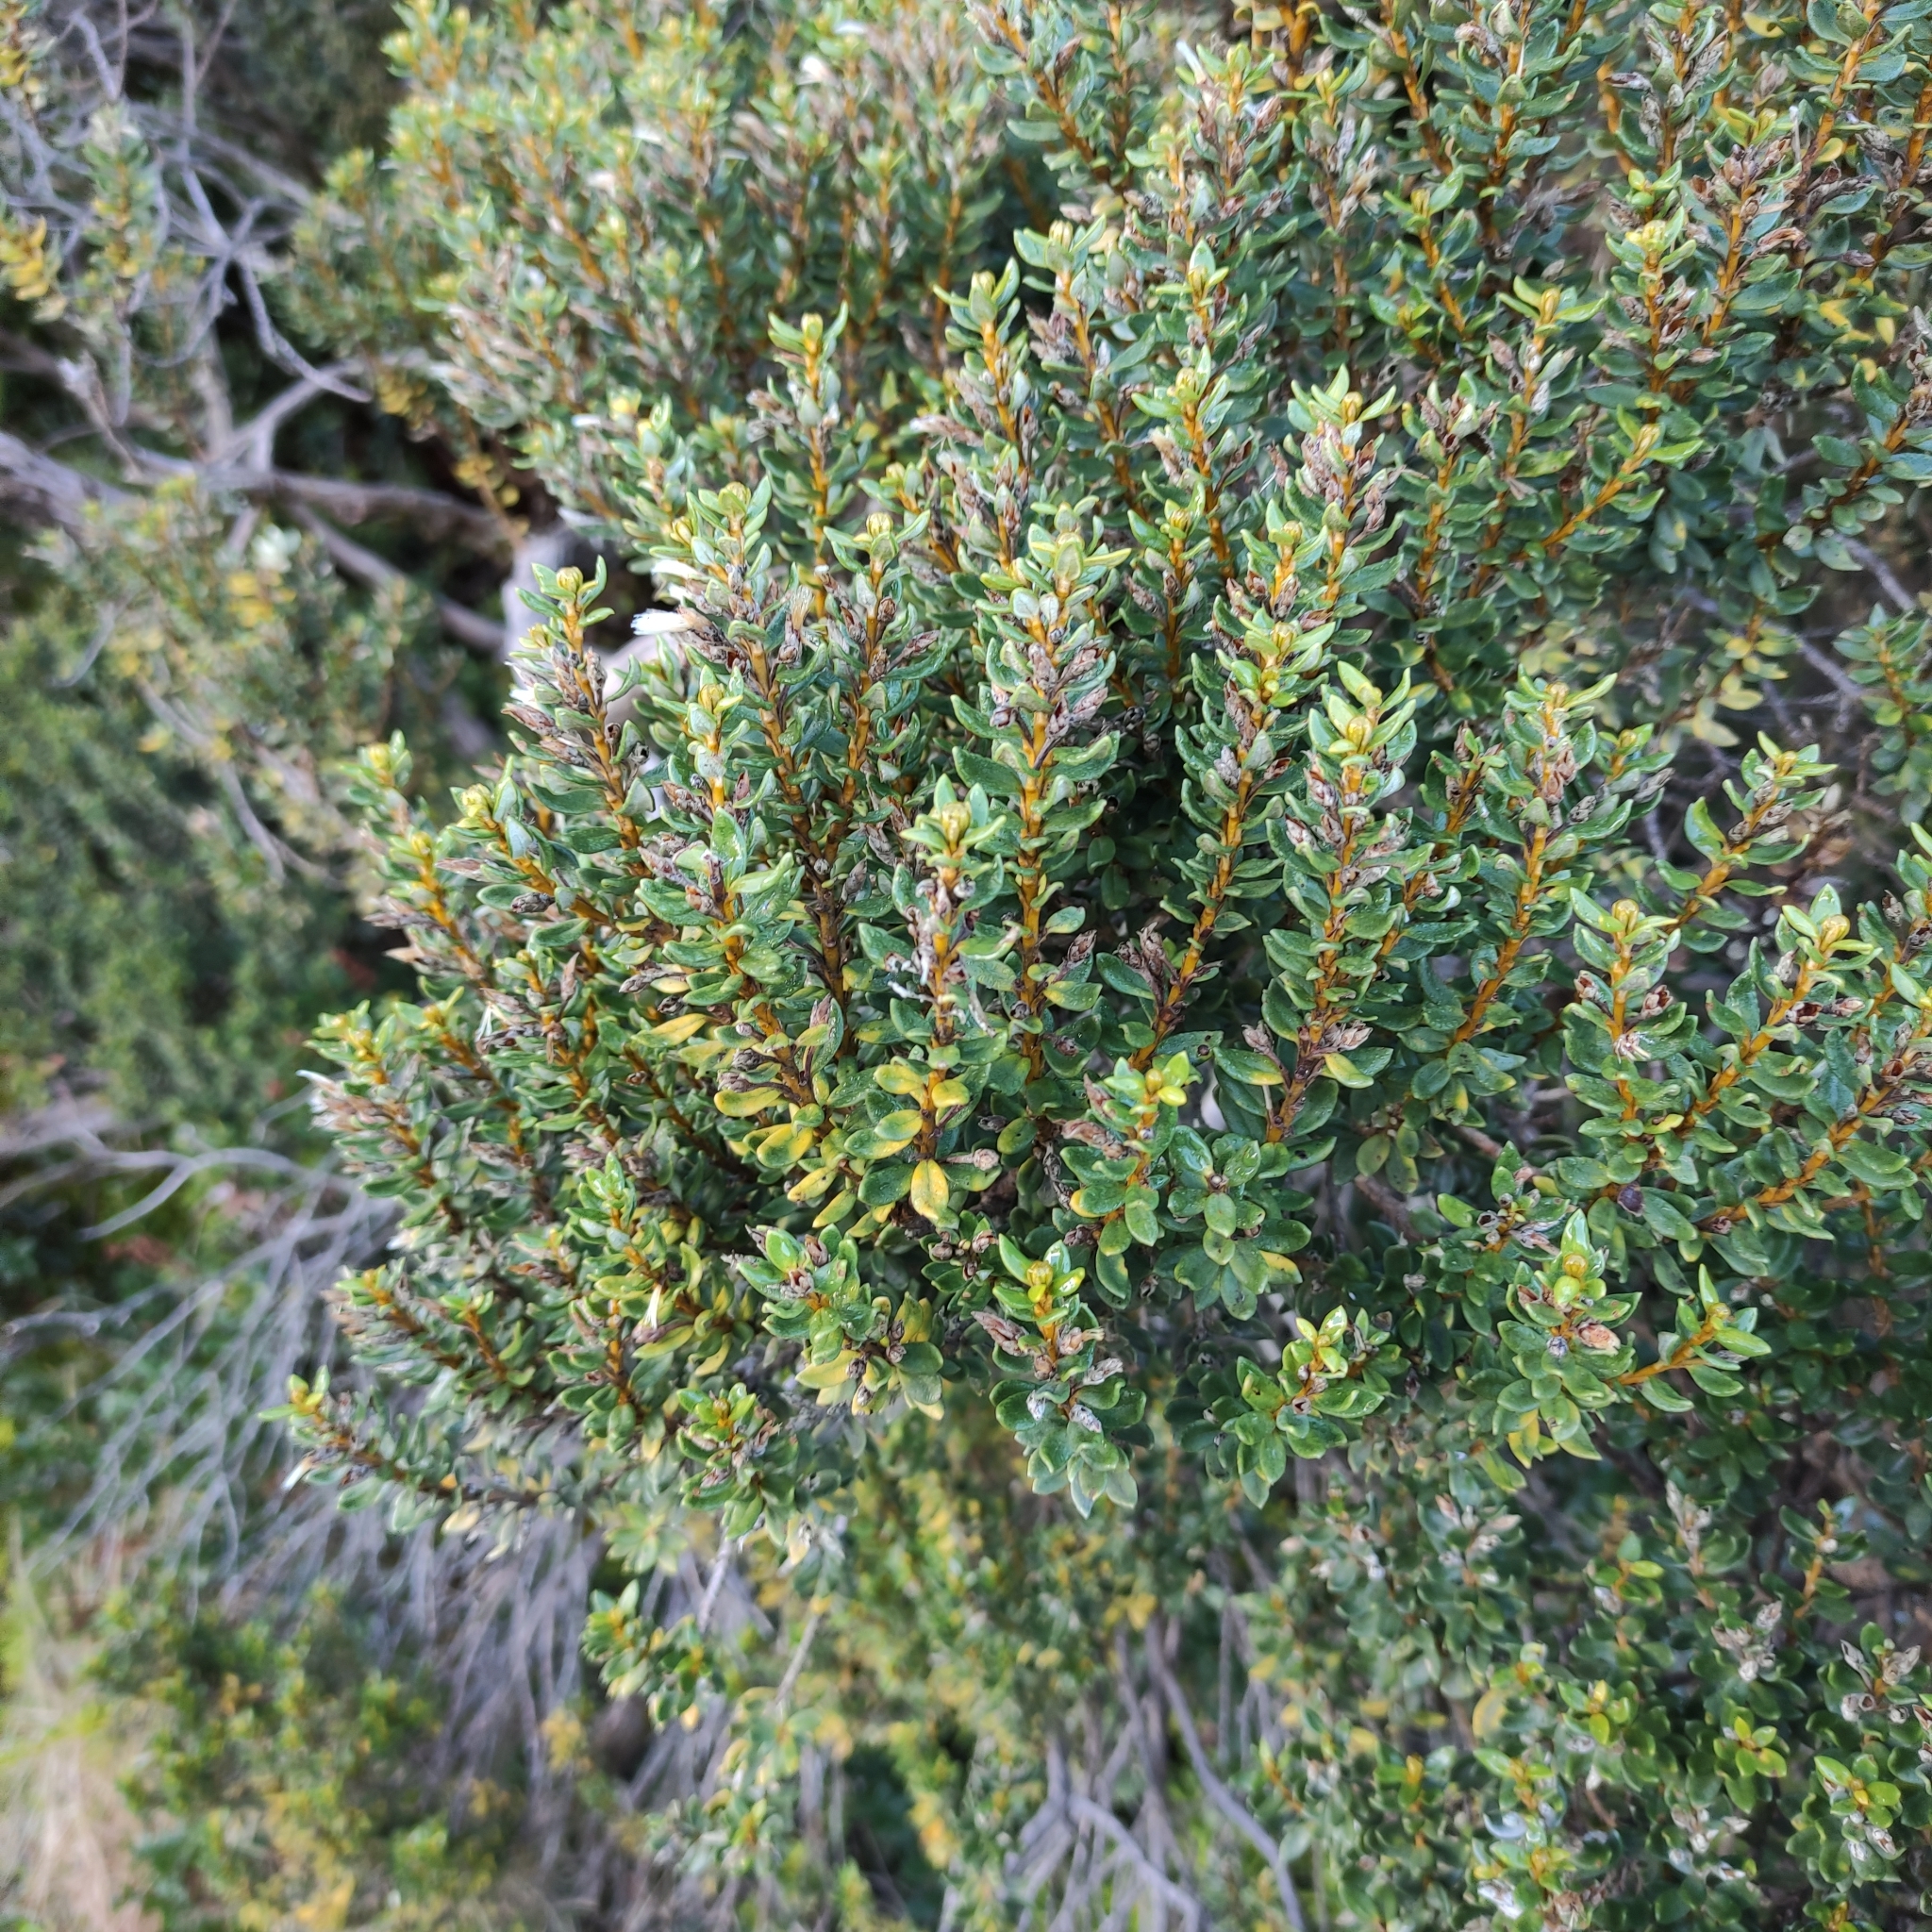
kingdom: Plantae
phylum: Tracheophyta
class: Magnoliopsida
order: Asterales
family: Asteraceae
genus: Olearia
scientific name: Olearia nummularifolia
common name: Sticky daisybush
